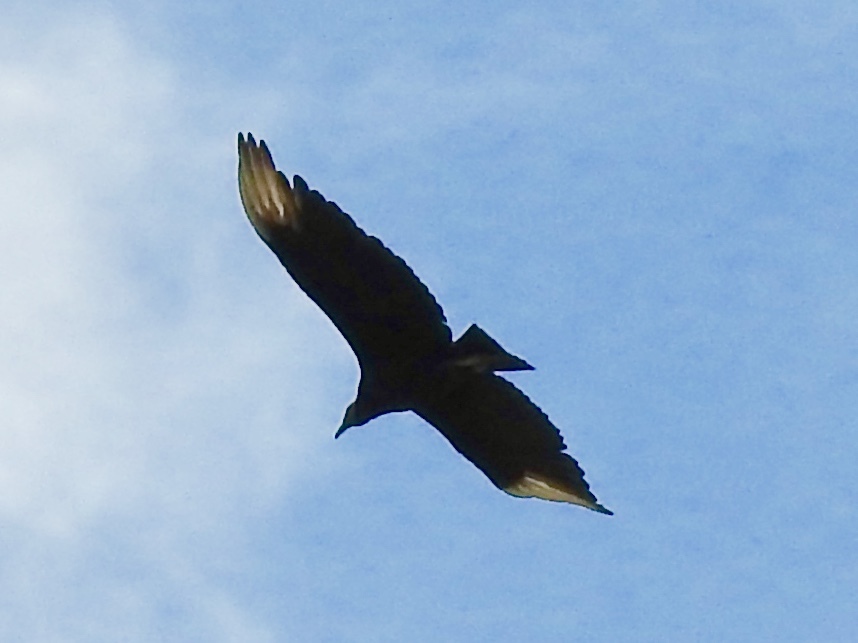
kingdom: Animalia
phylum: Chordata
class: Aves
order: Accipitriformes
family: Cathartidae
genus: Coragyps
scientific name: Coragyps atratus
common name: Black vulture
